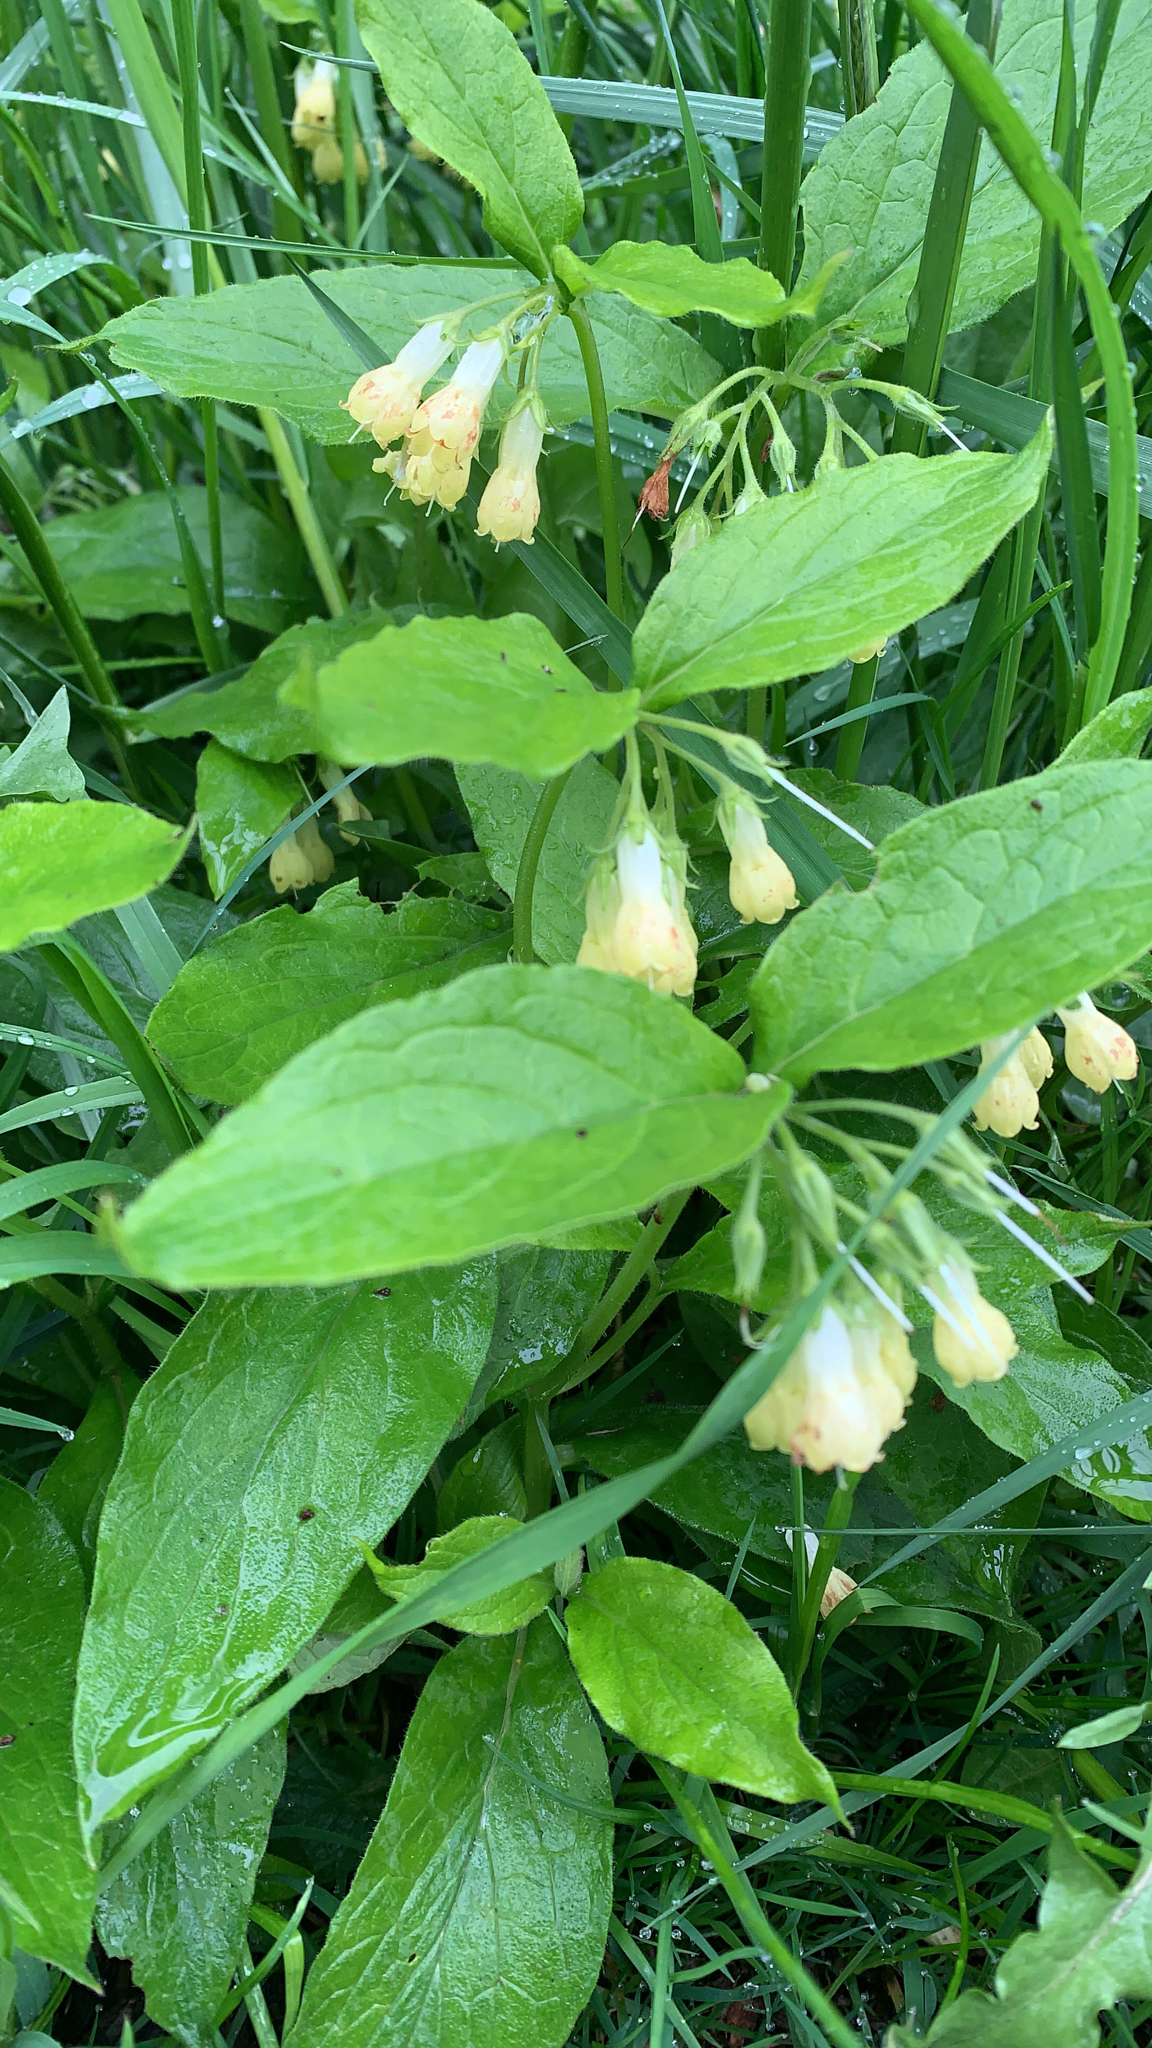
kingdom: Plantae
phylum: Tracheophyta
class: Magnoliopsida
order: Boraginales
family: Boraginaceae
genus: Symphytum
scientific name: Symphytum tuberosum
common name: Tuberous comfrey
